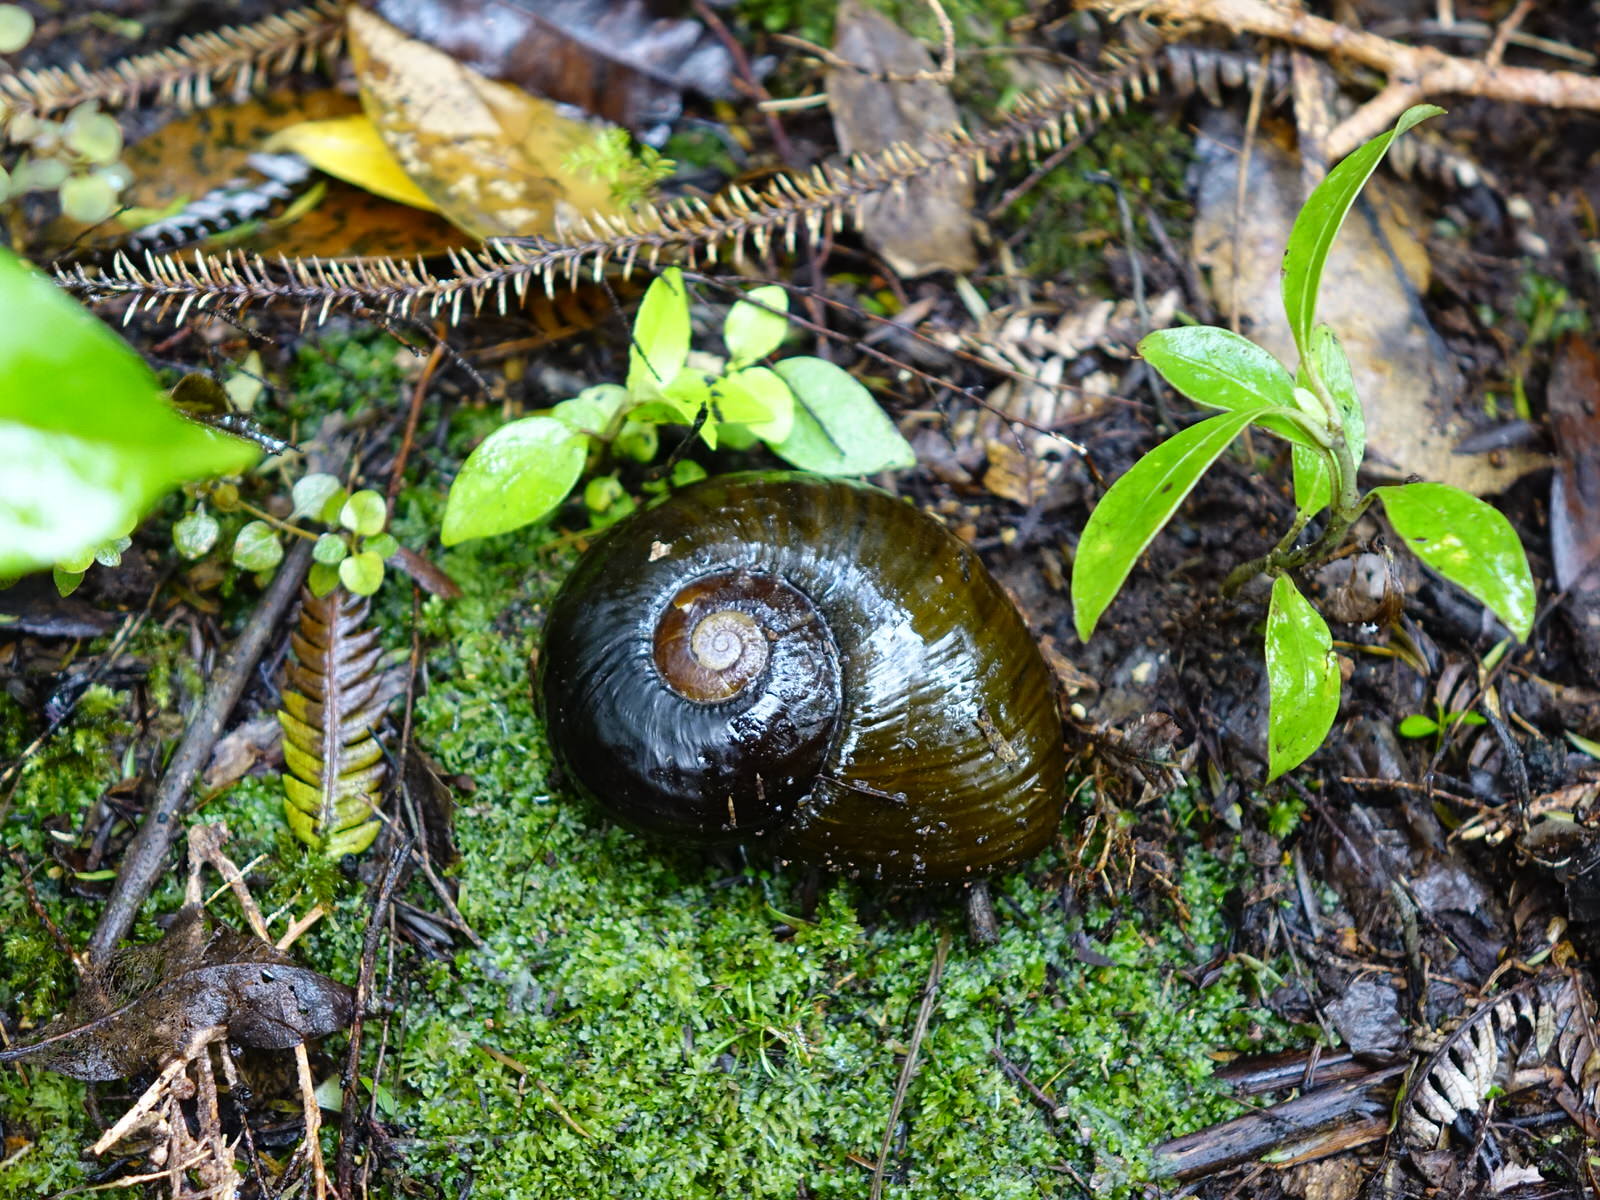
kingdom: Animalia
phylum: Mollusca
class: Gastropoda
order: Stylommatophora
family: Rhytididae
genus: Paryphanta
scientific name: Paryphanta busbyi
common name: Kauri snail
